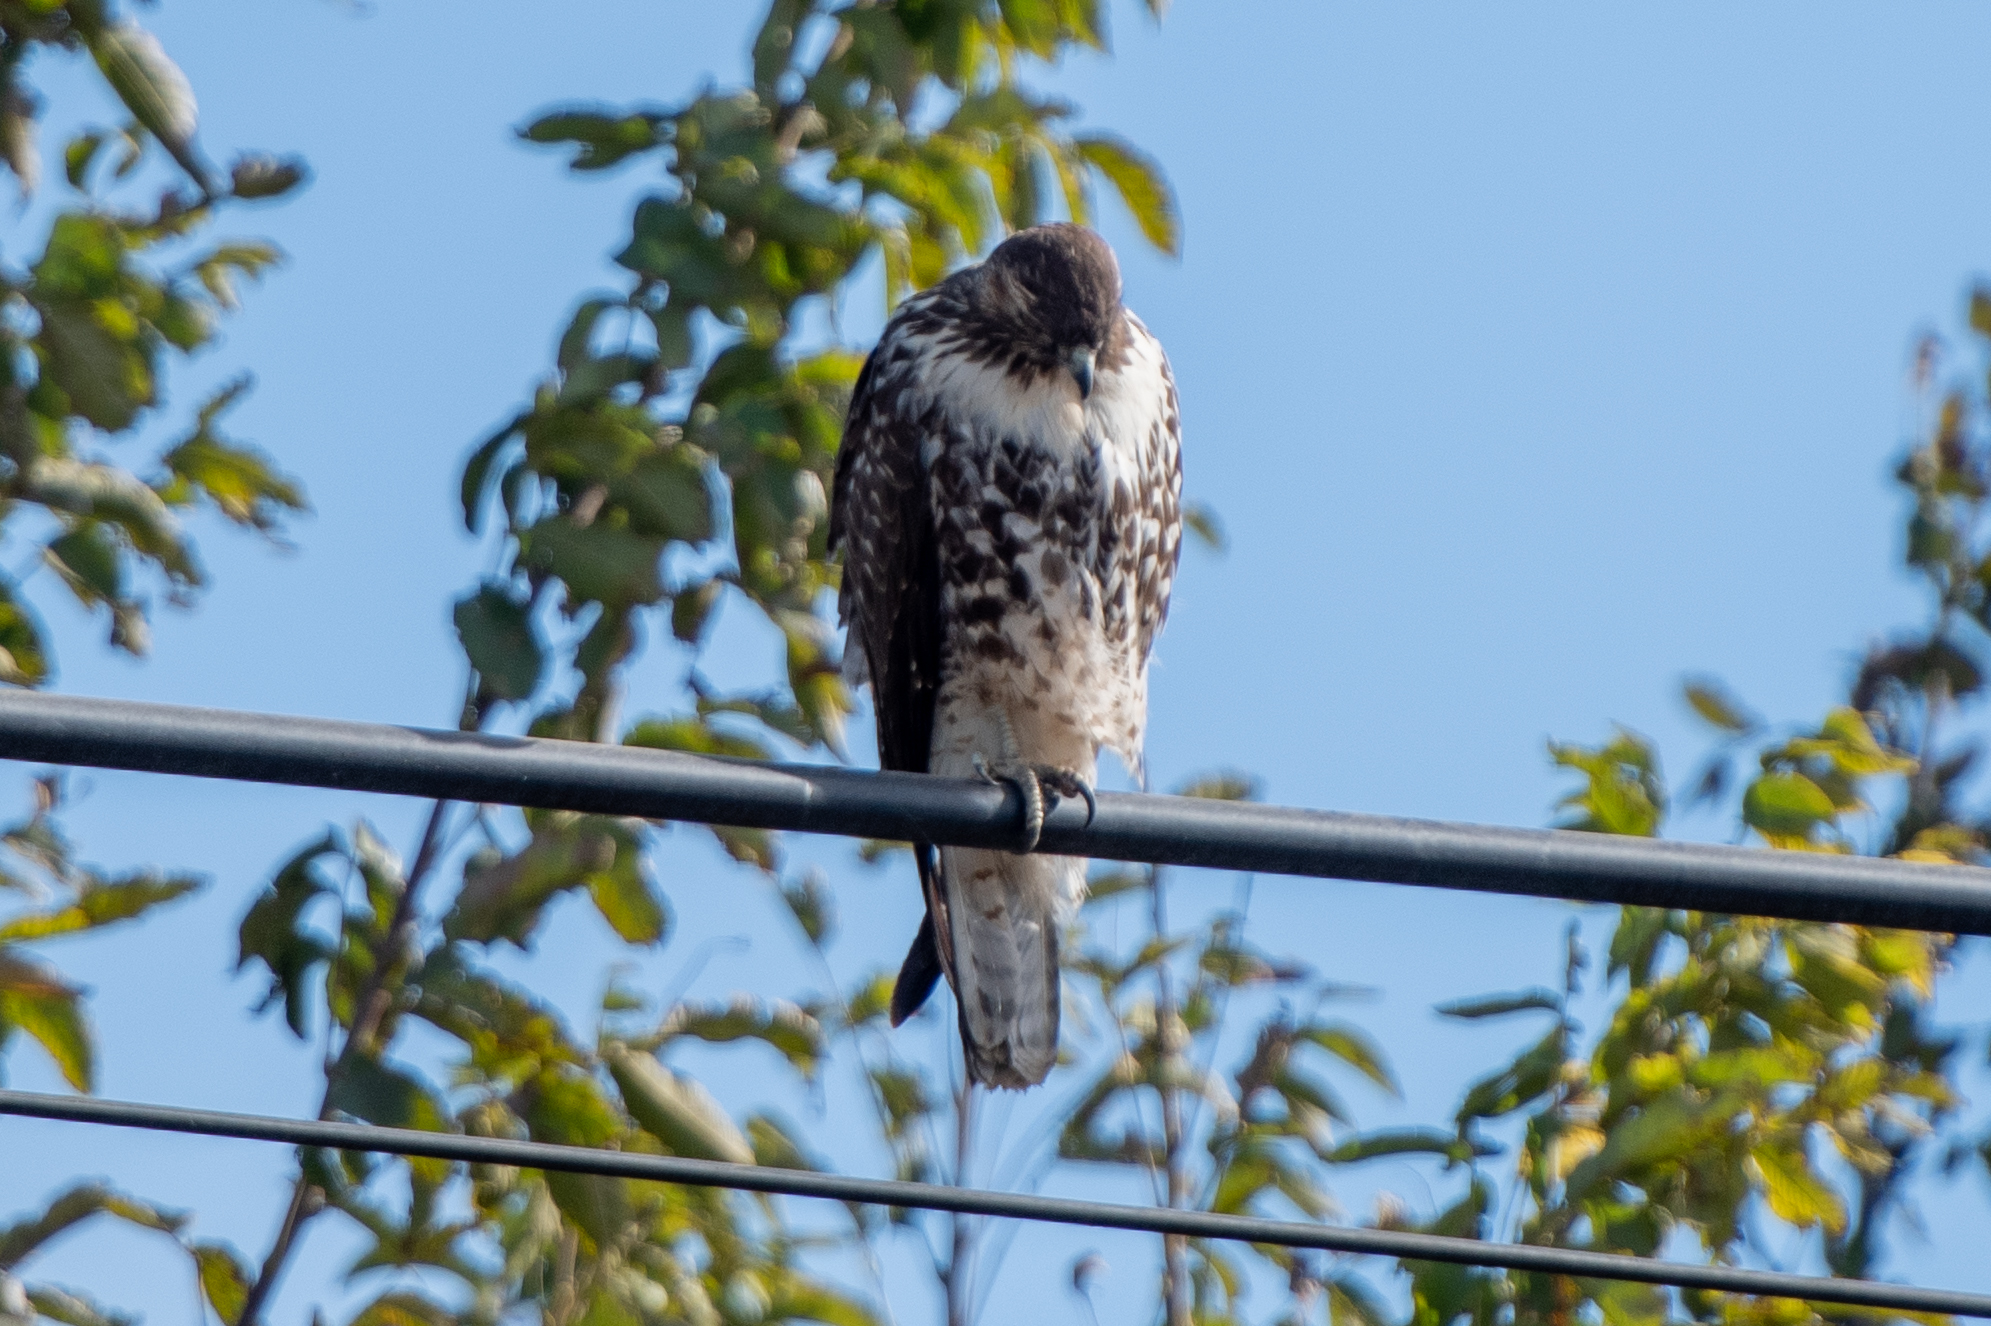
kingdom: Animalia
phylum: Chordata
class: Aves
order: Accipitriformes
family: Accipitridae
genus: Buteo
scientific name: Buteo jamaicensis
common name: Red-tailed hawk
